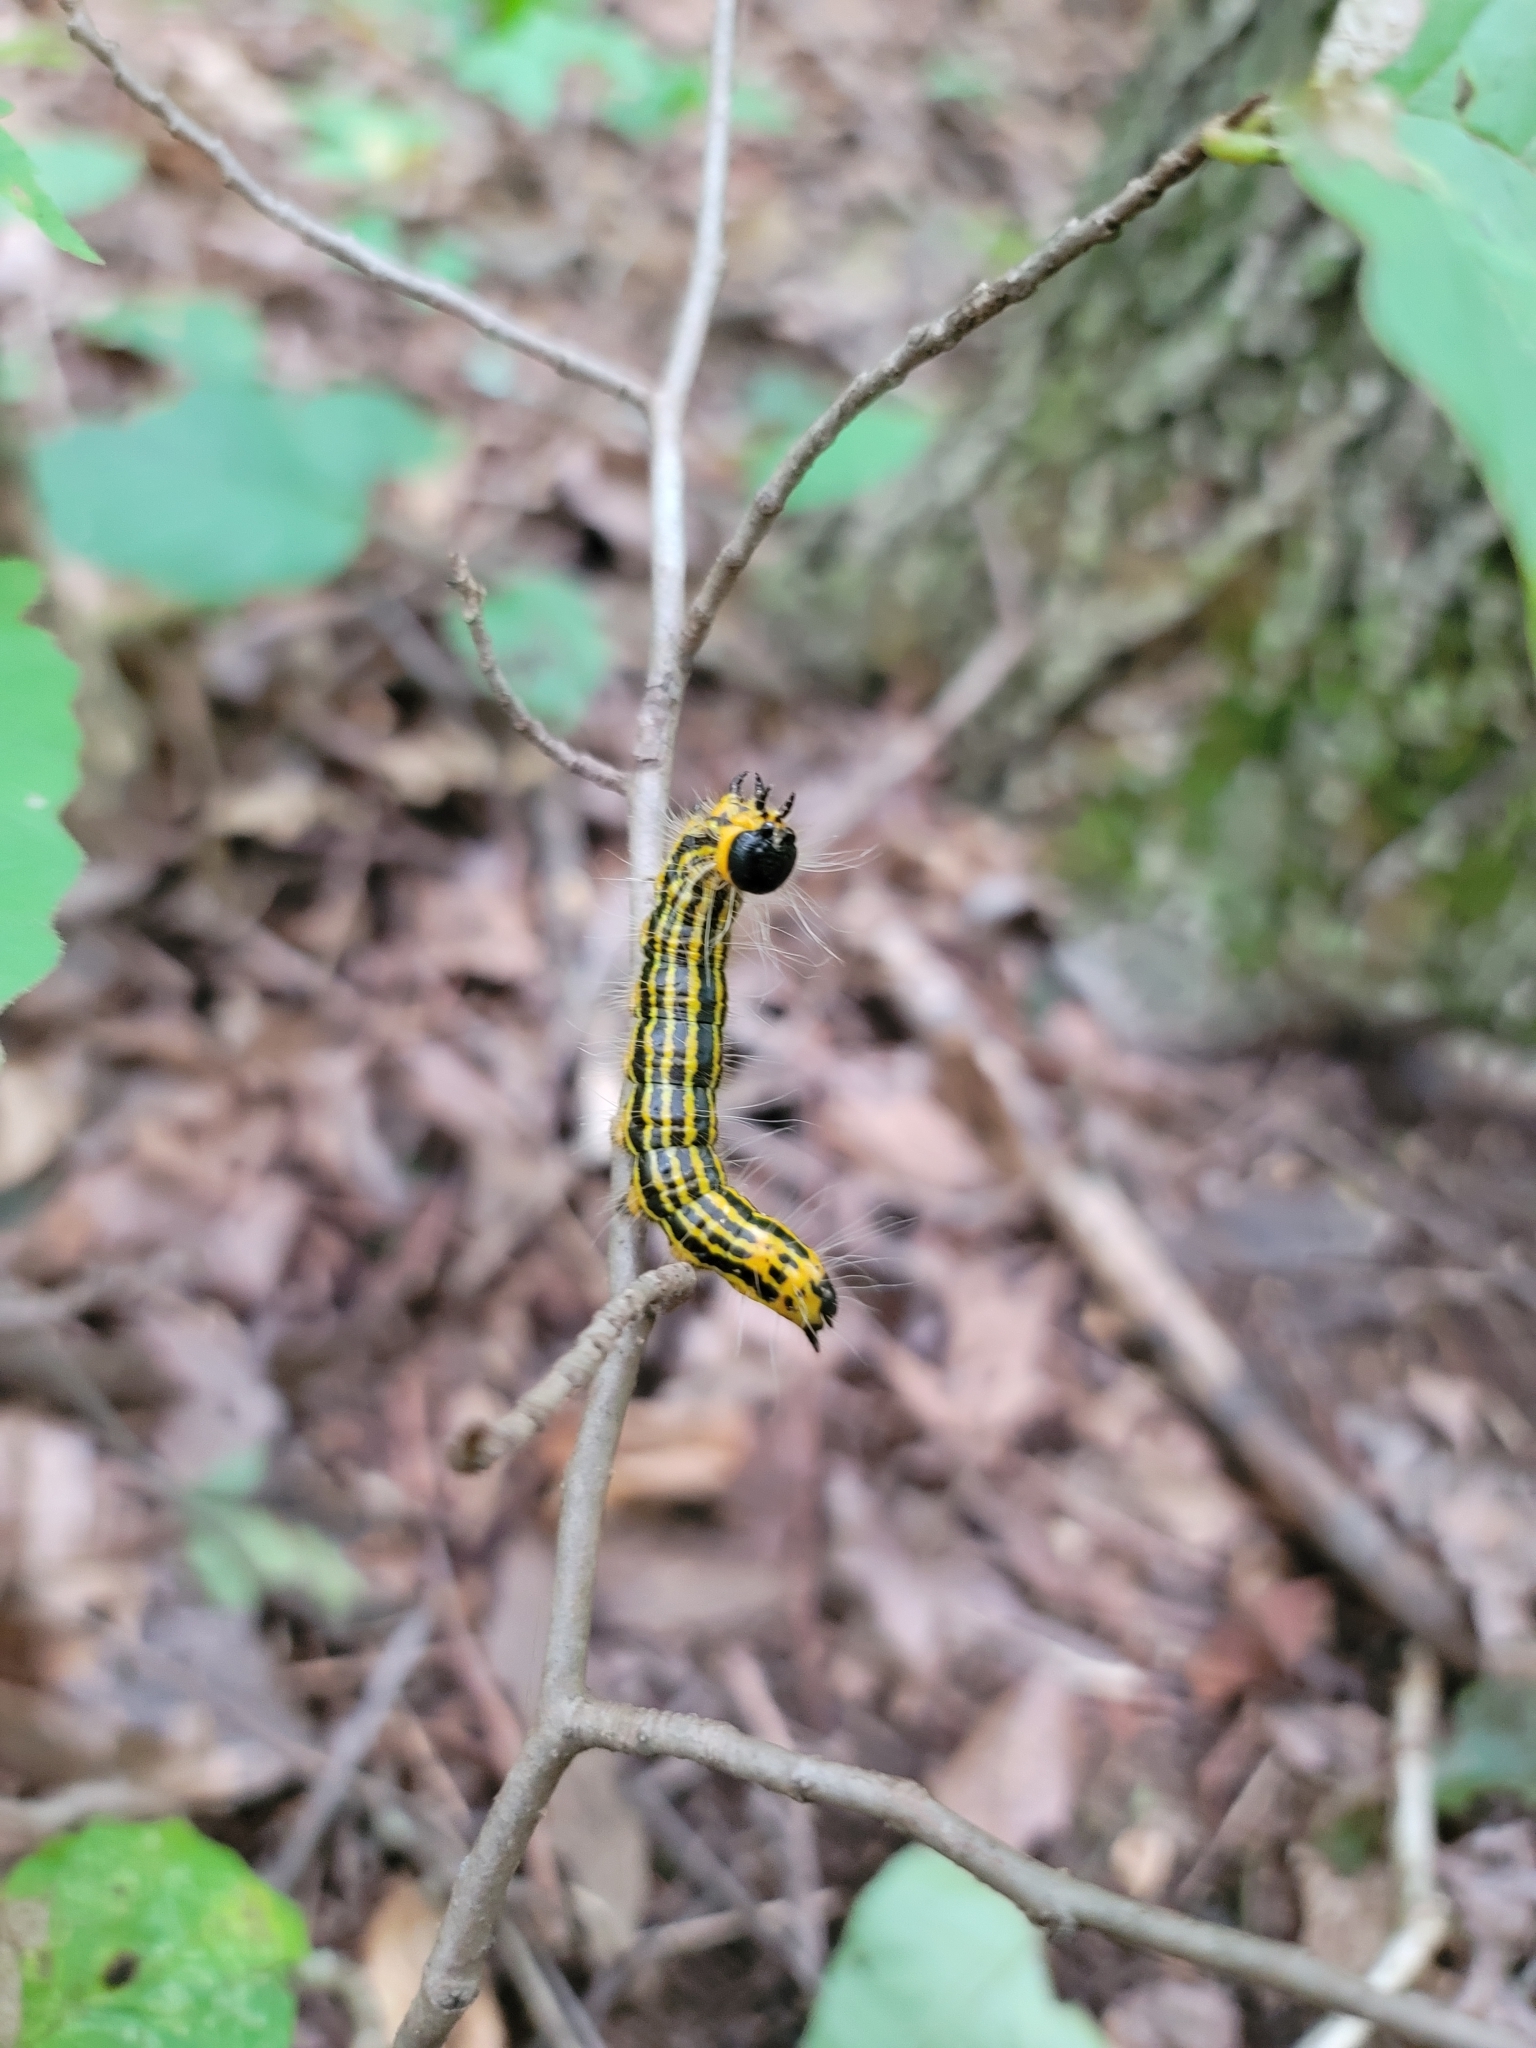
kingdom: Animalia
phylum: Arthropoda
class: Insecta
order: Lepidoptera
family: Notodontidae
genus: Datana
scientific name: Datana drexelii
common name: Drexel's datana
